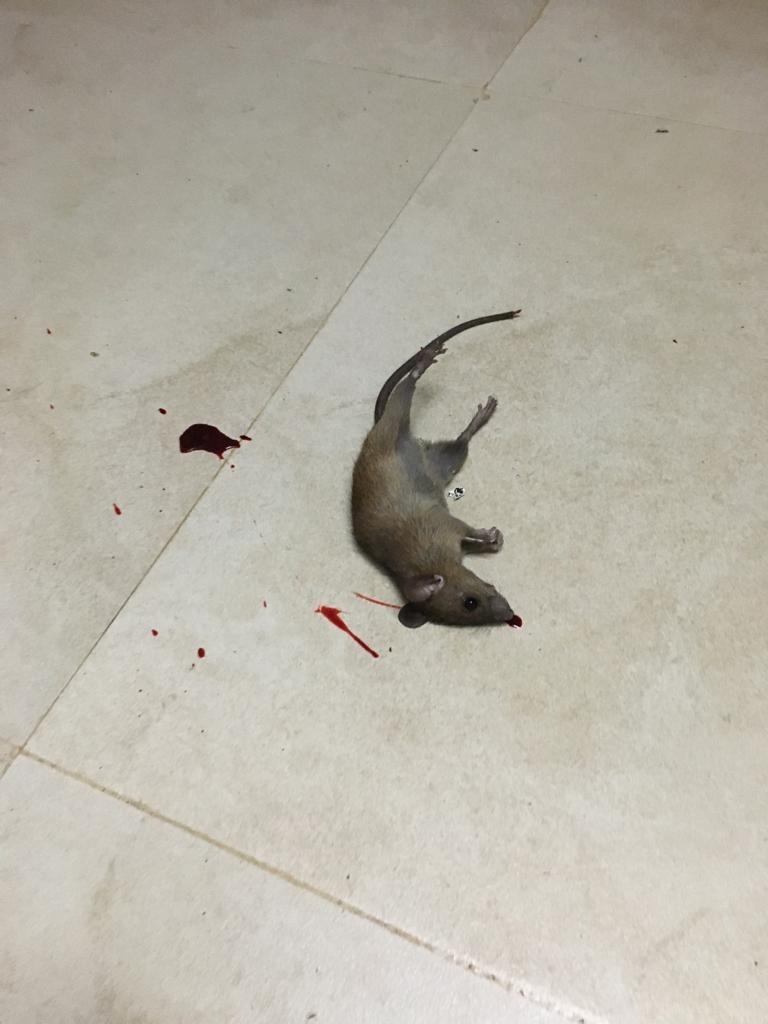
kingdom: Animalia
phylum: Chordata
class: Mammalia
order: Rodentia
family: Muridae
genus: Rattus
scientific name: Rattus rattus
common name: Black rat
